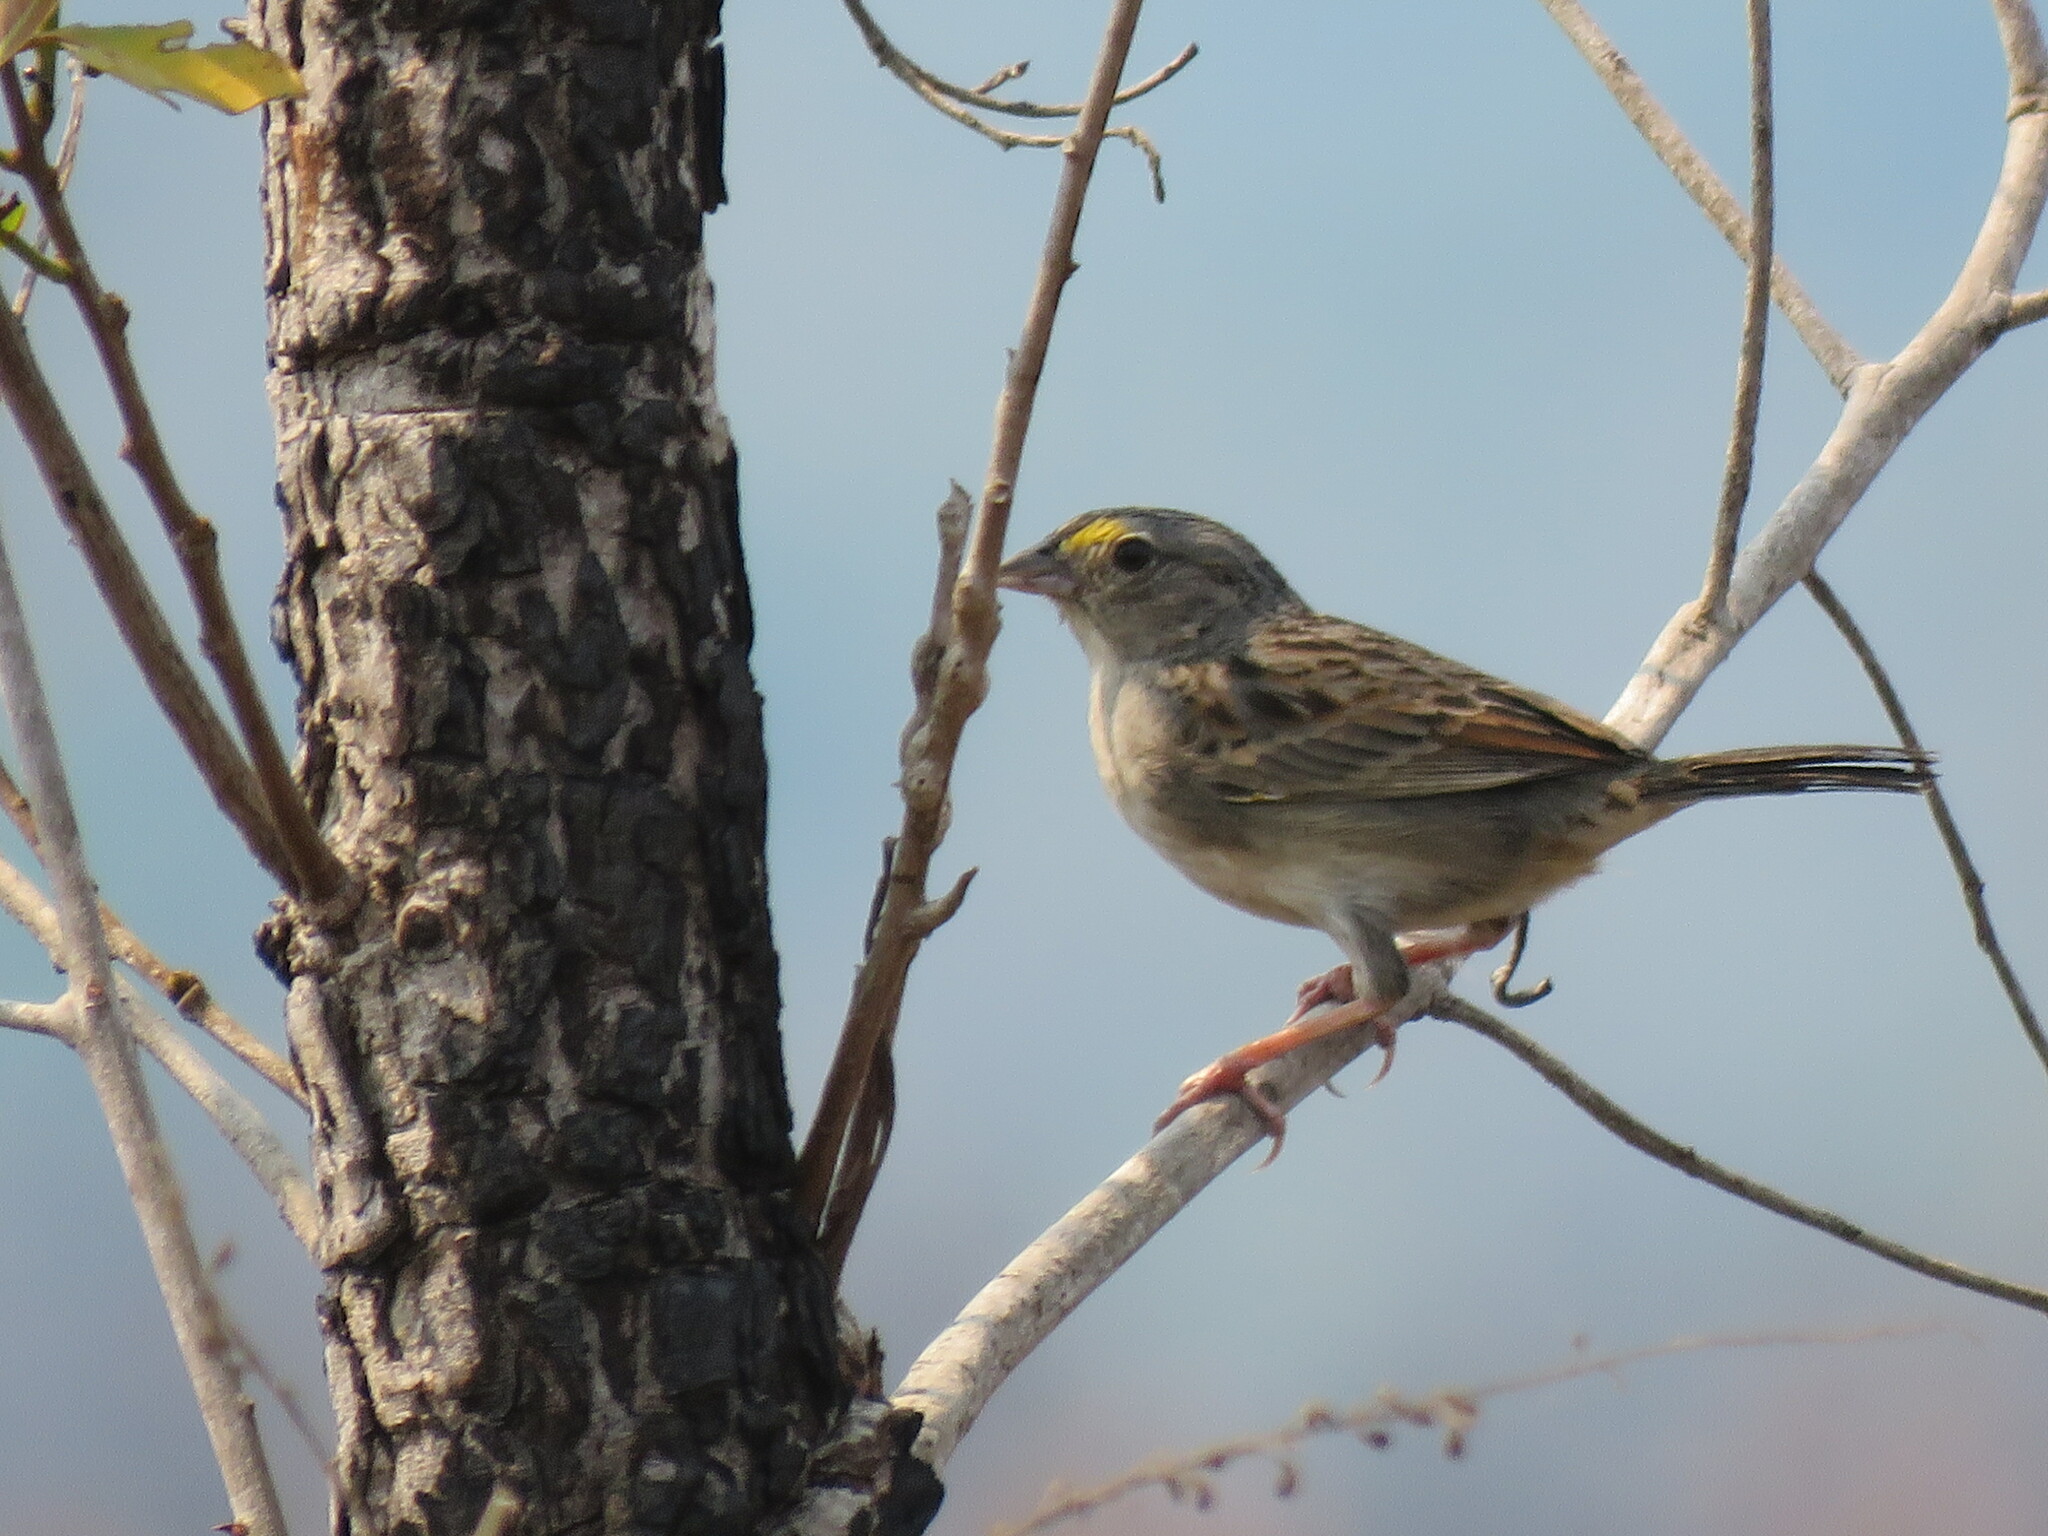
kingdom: Animalia
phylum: Chordata
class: Aves
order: Passeriformes
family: Passerellidae
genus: Ammodramus
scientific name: Ammodramus humeralis
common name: Grassland sparrow
